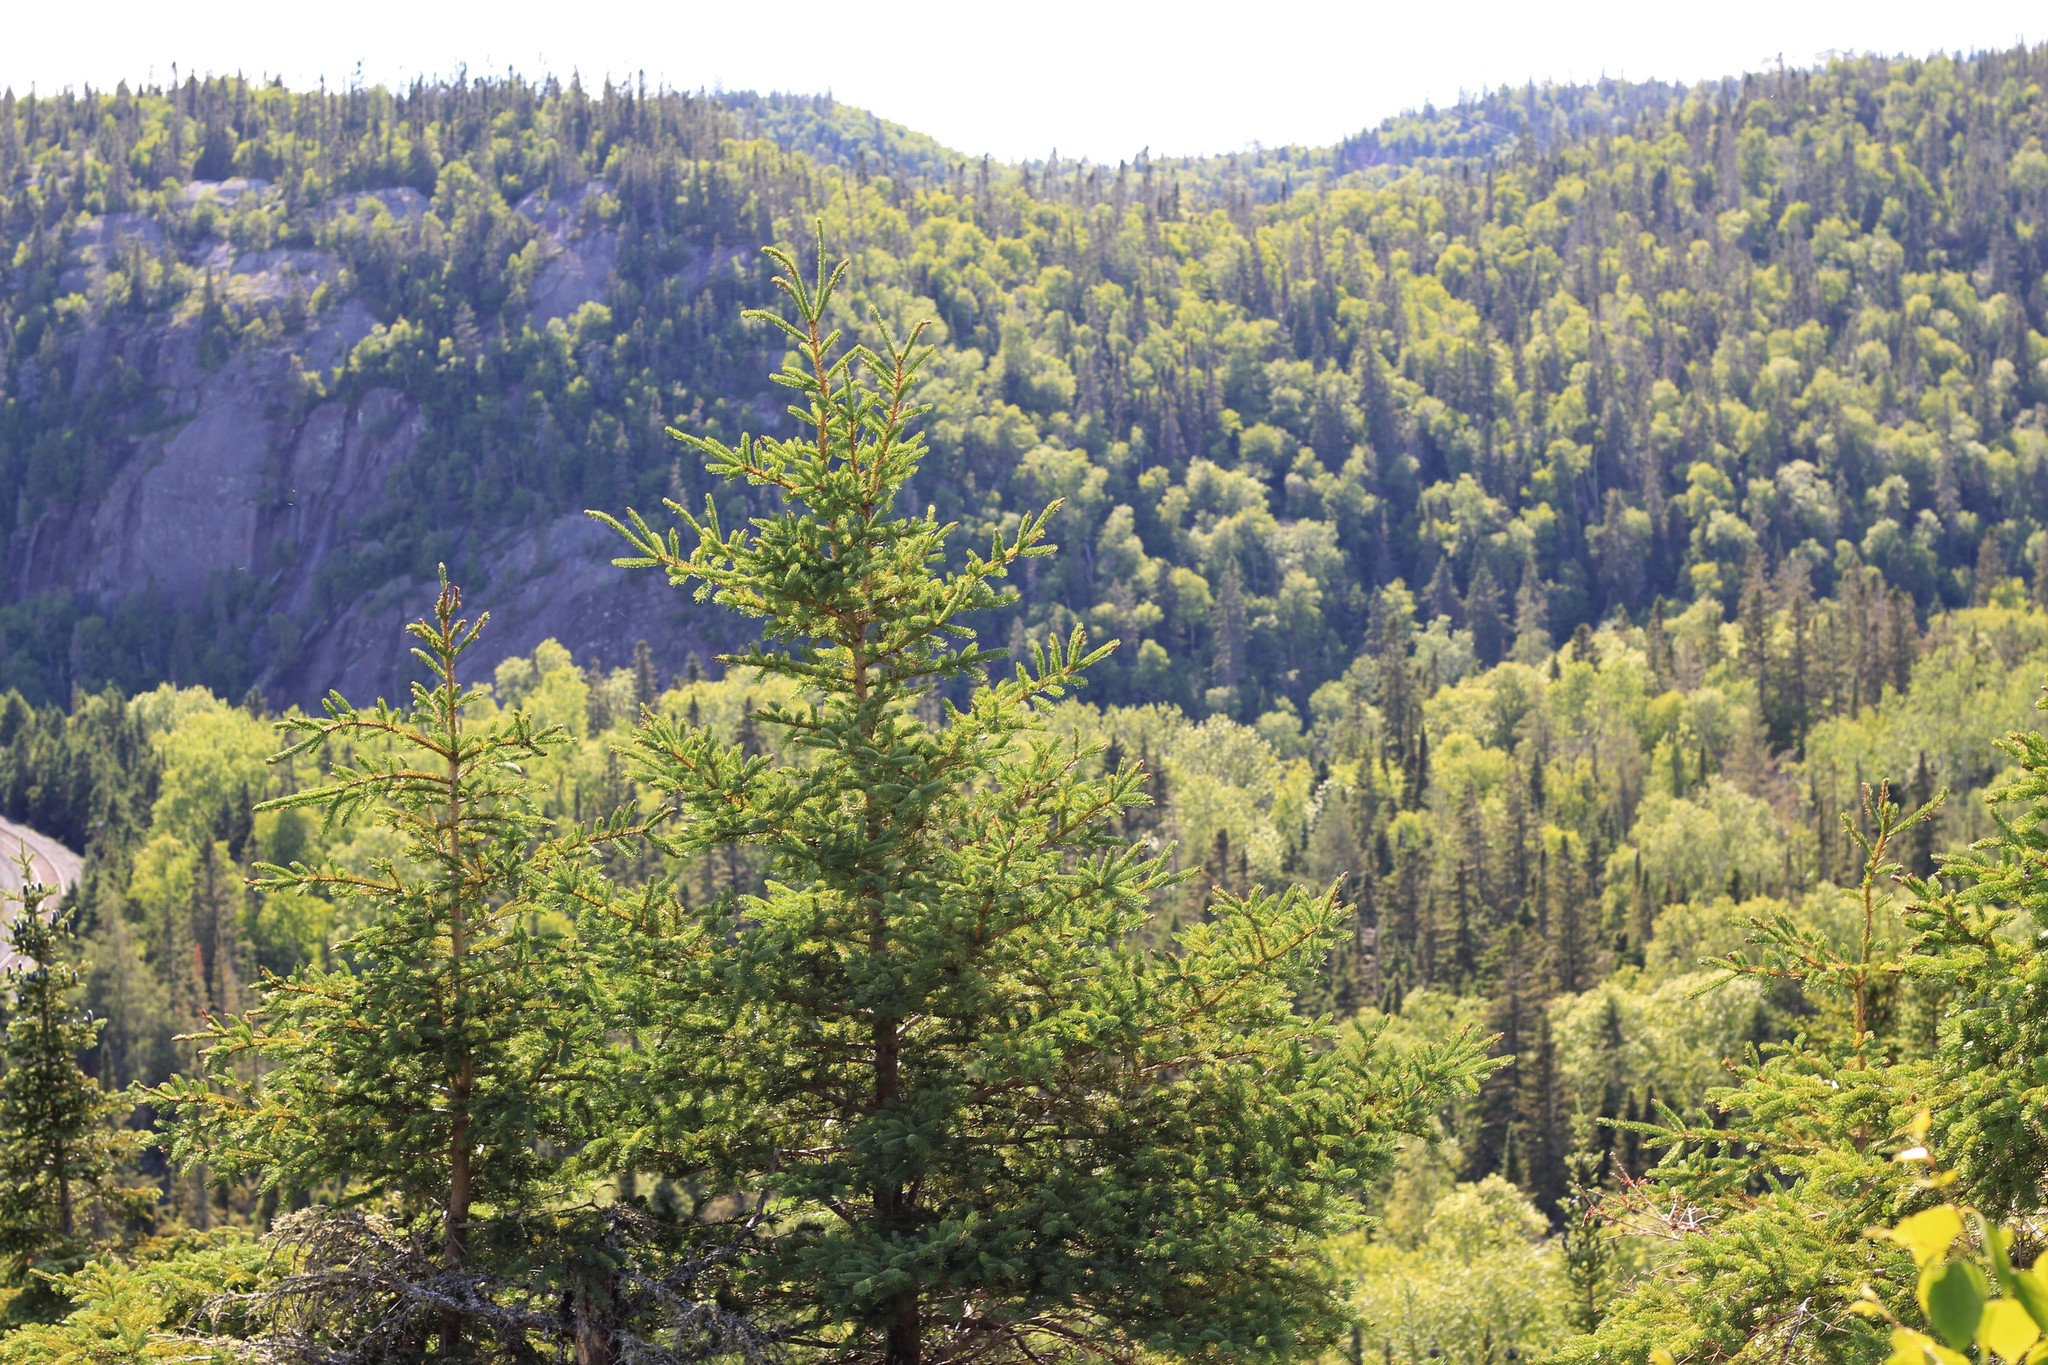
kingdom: Plantae
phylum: Tracheophyta
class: Pinopsida
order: Pinales
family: Pinaceae
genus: Picea
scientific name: Picea glauca
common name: White spruce
